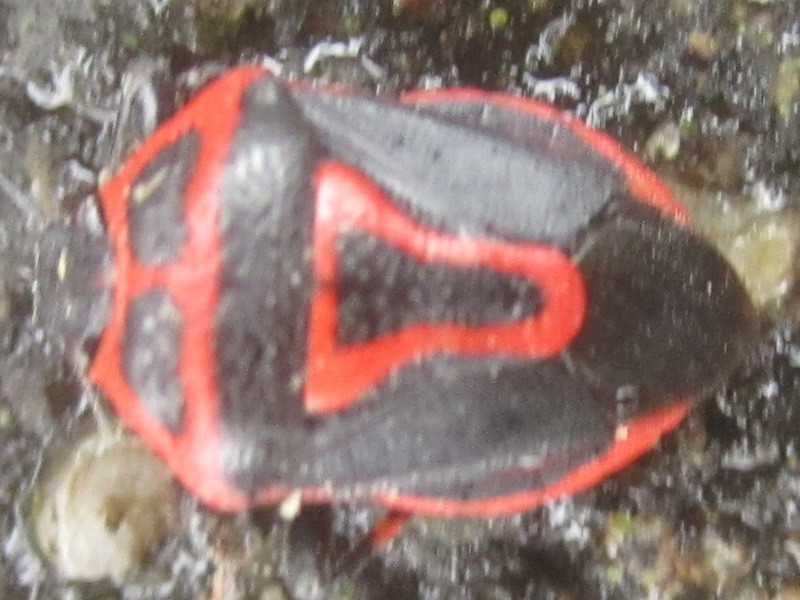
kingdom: Animalia
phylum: Arthropoda
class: Insecta
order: Hemiptera
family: Pentatomidae
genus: Perillus
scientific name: Perillus bioculatus
